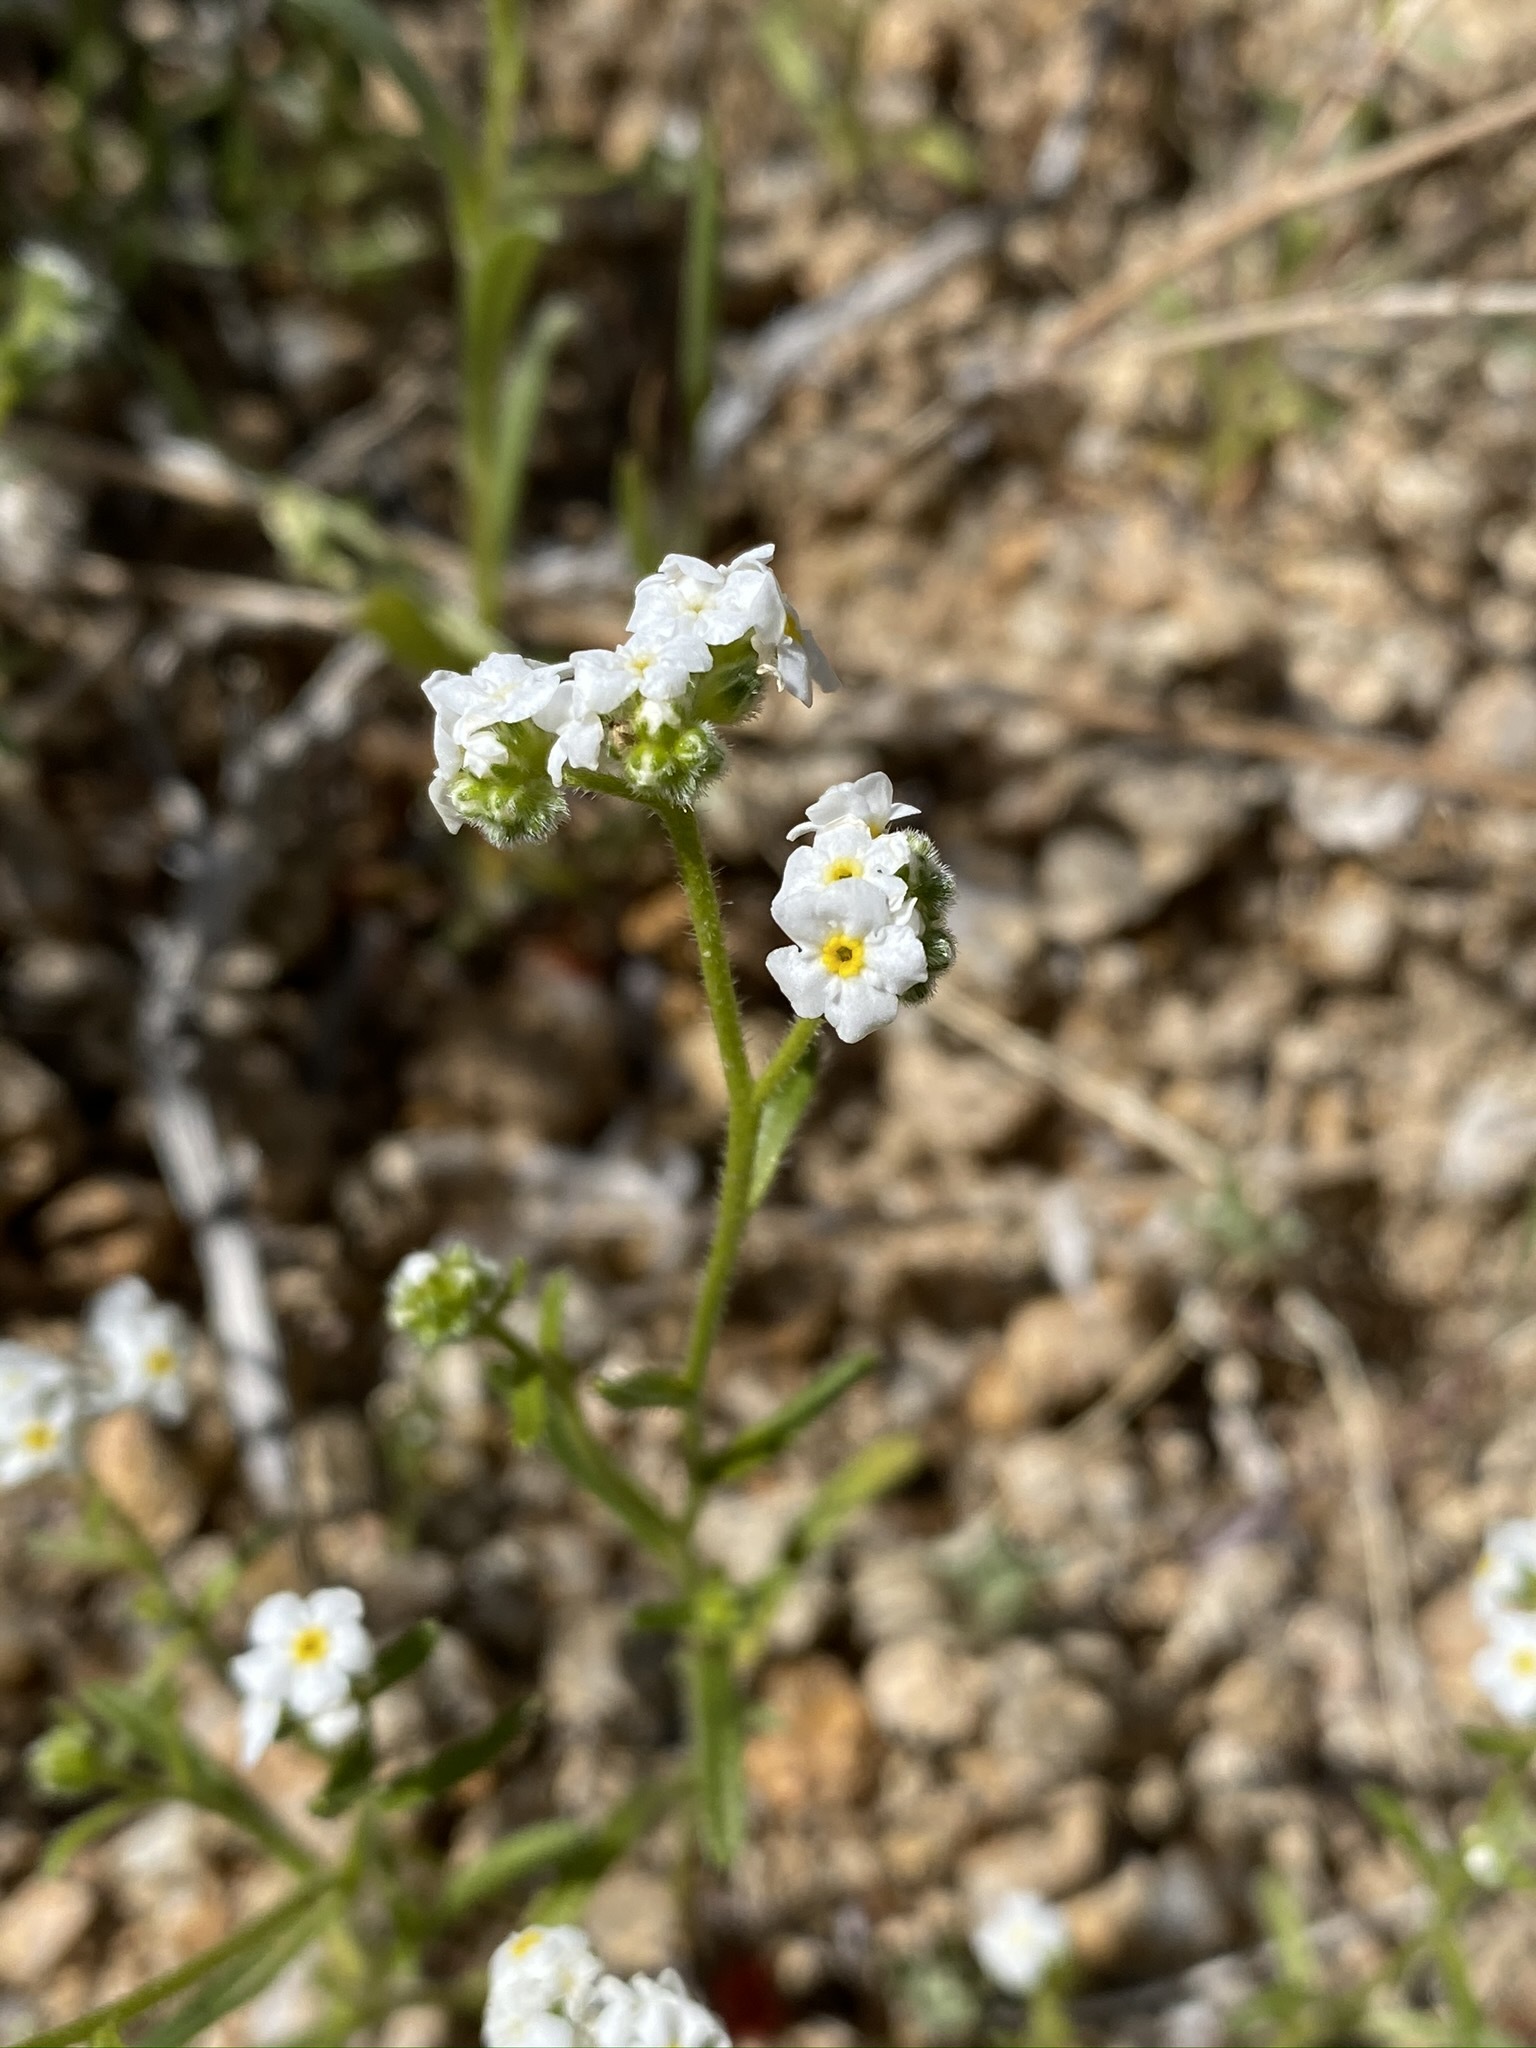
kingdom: Plantae
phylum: Tracheophyta
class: Magnoliopsida
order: Boraginales
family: Boraginaceae
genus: Cryptantha
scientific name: Cryptantha utahensis
